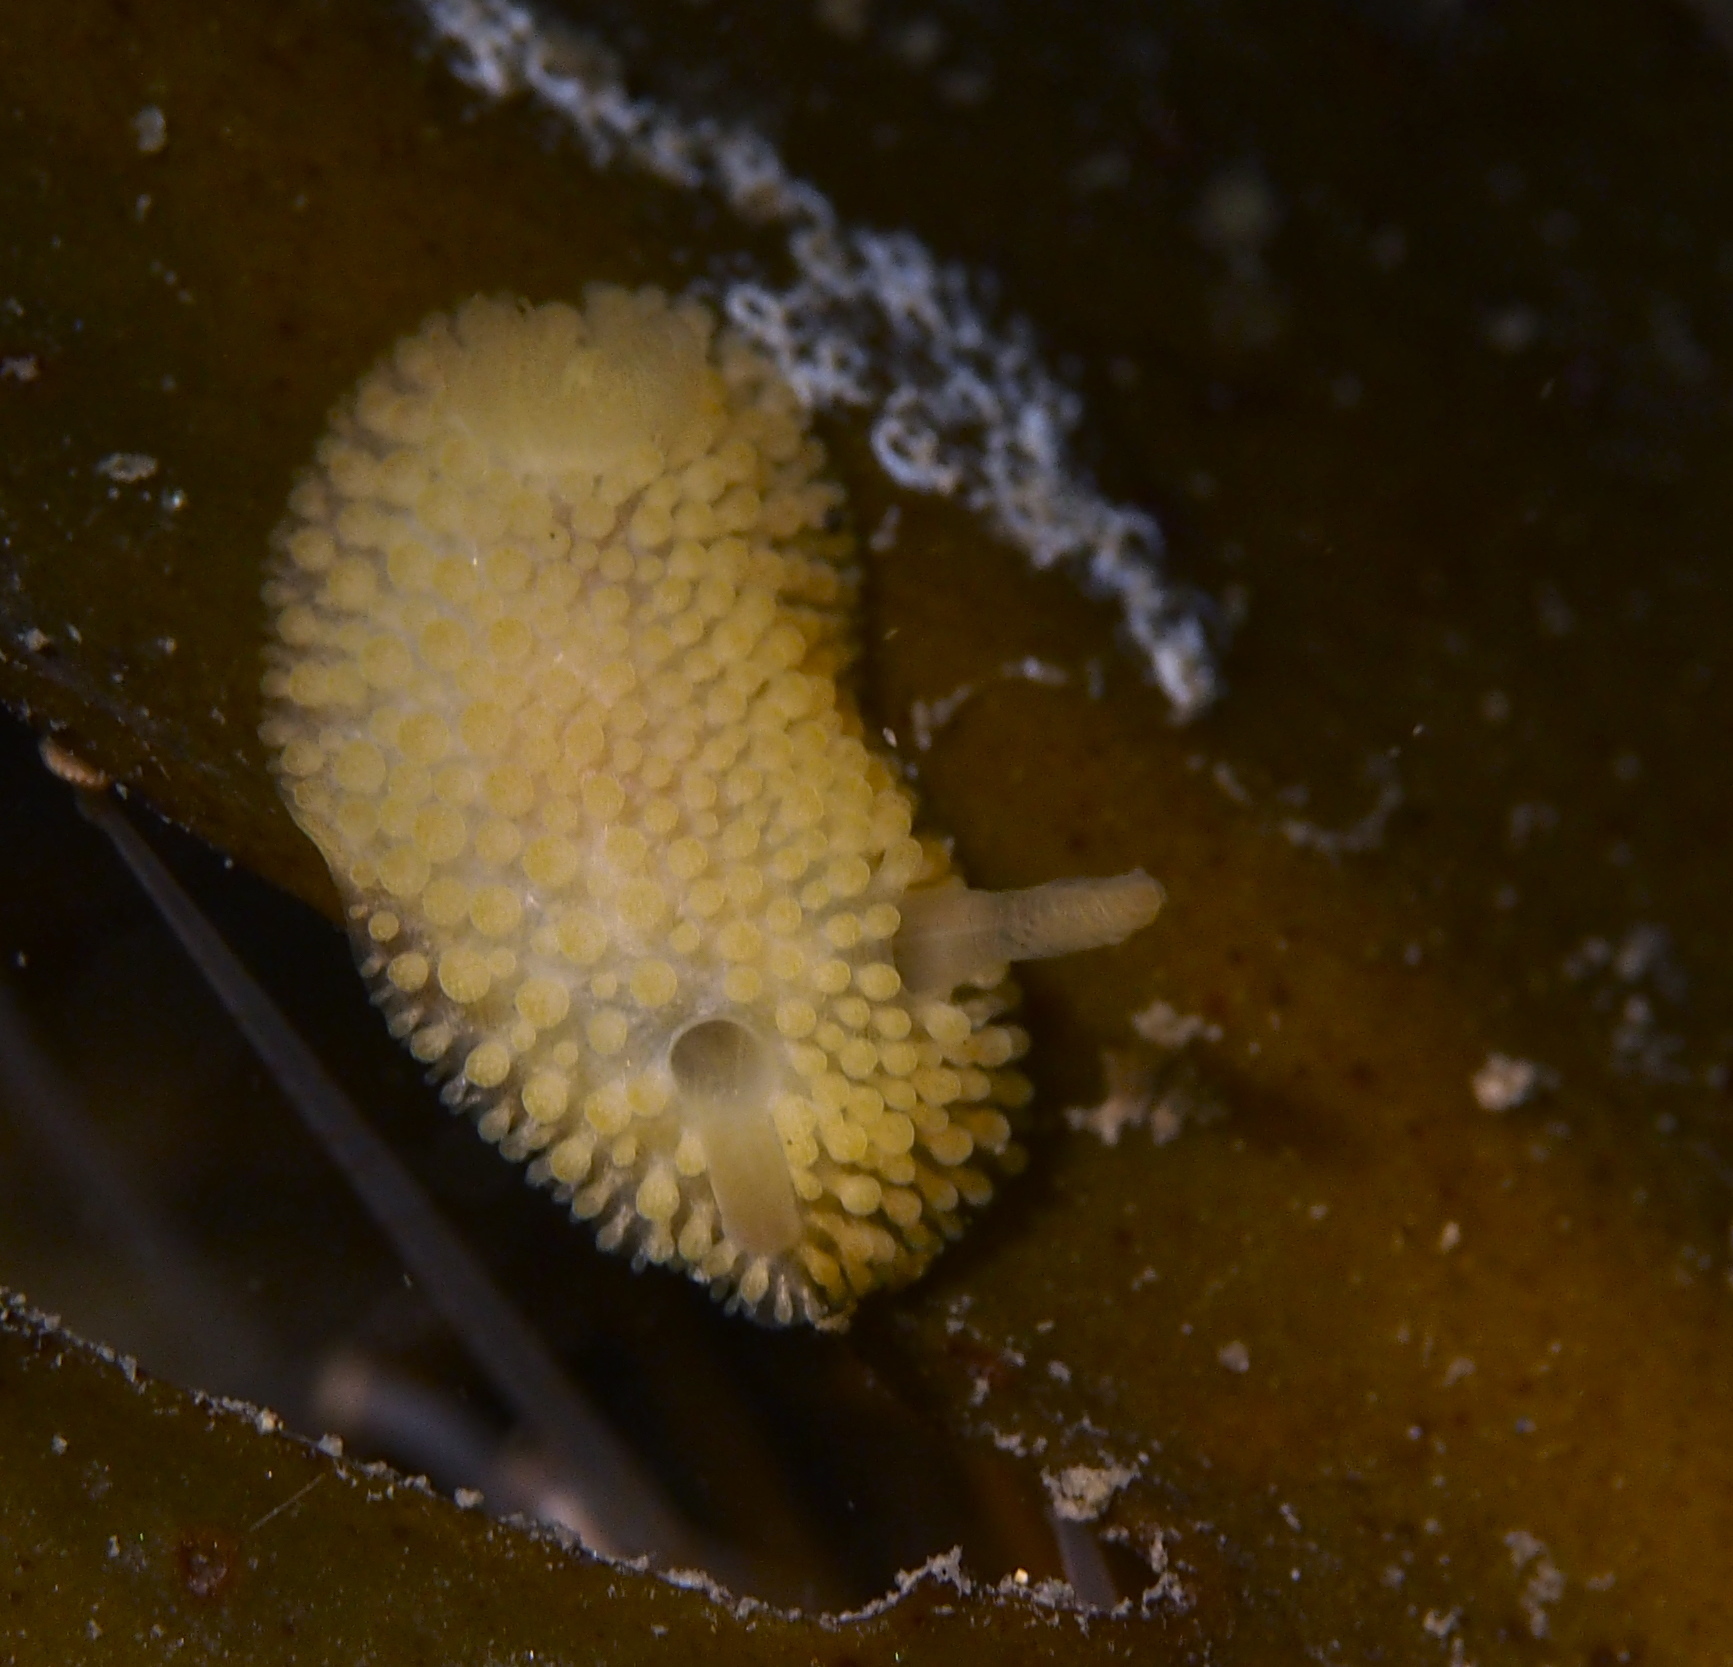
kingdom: Animalia
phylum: Mollusca
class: Gastropoda
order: Nudibranchia
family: Onchidorididae
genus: Onchidoris
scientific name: Onchidoris muricata
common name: Rough doris
